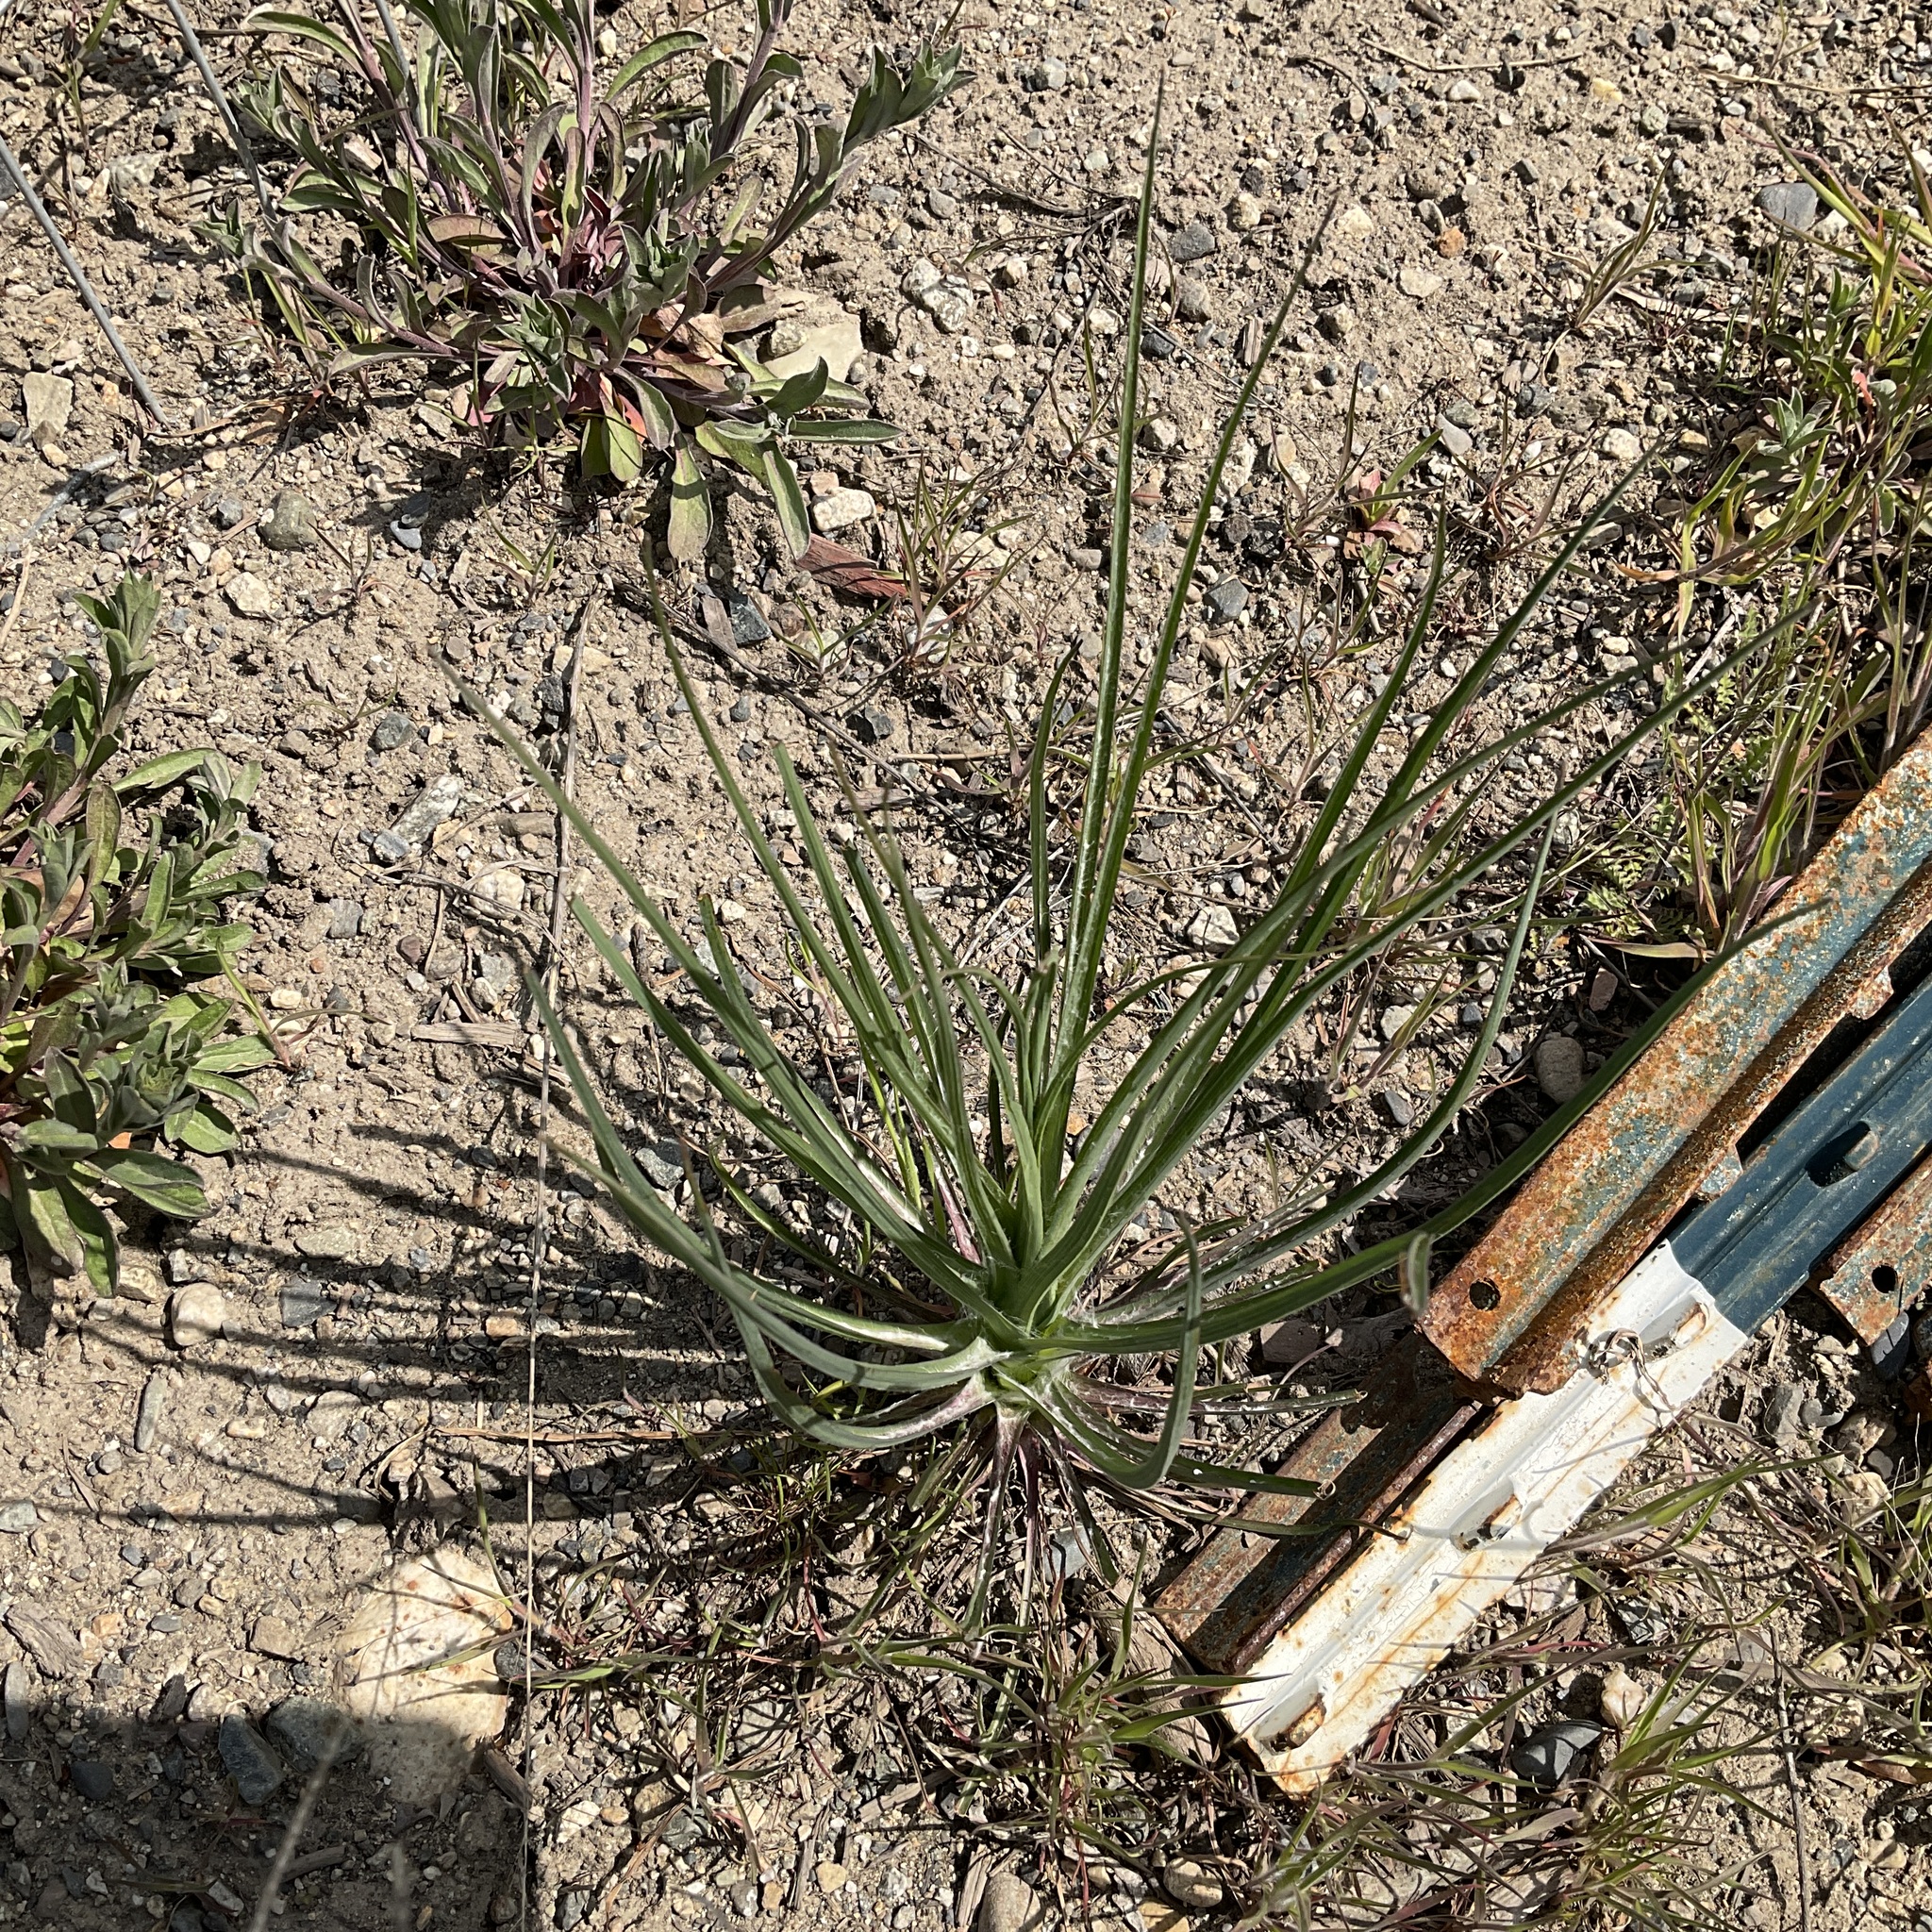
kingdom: Plantae
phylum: Tracheophyta
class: Magnoliopsida
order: Asterales
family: Asteraceae
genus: Tragopogon
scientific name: Tragopogon dubius
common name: Yellow salsify
